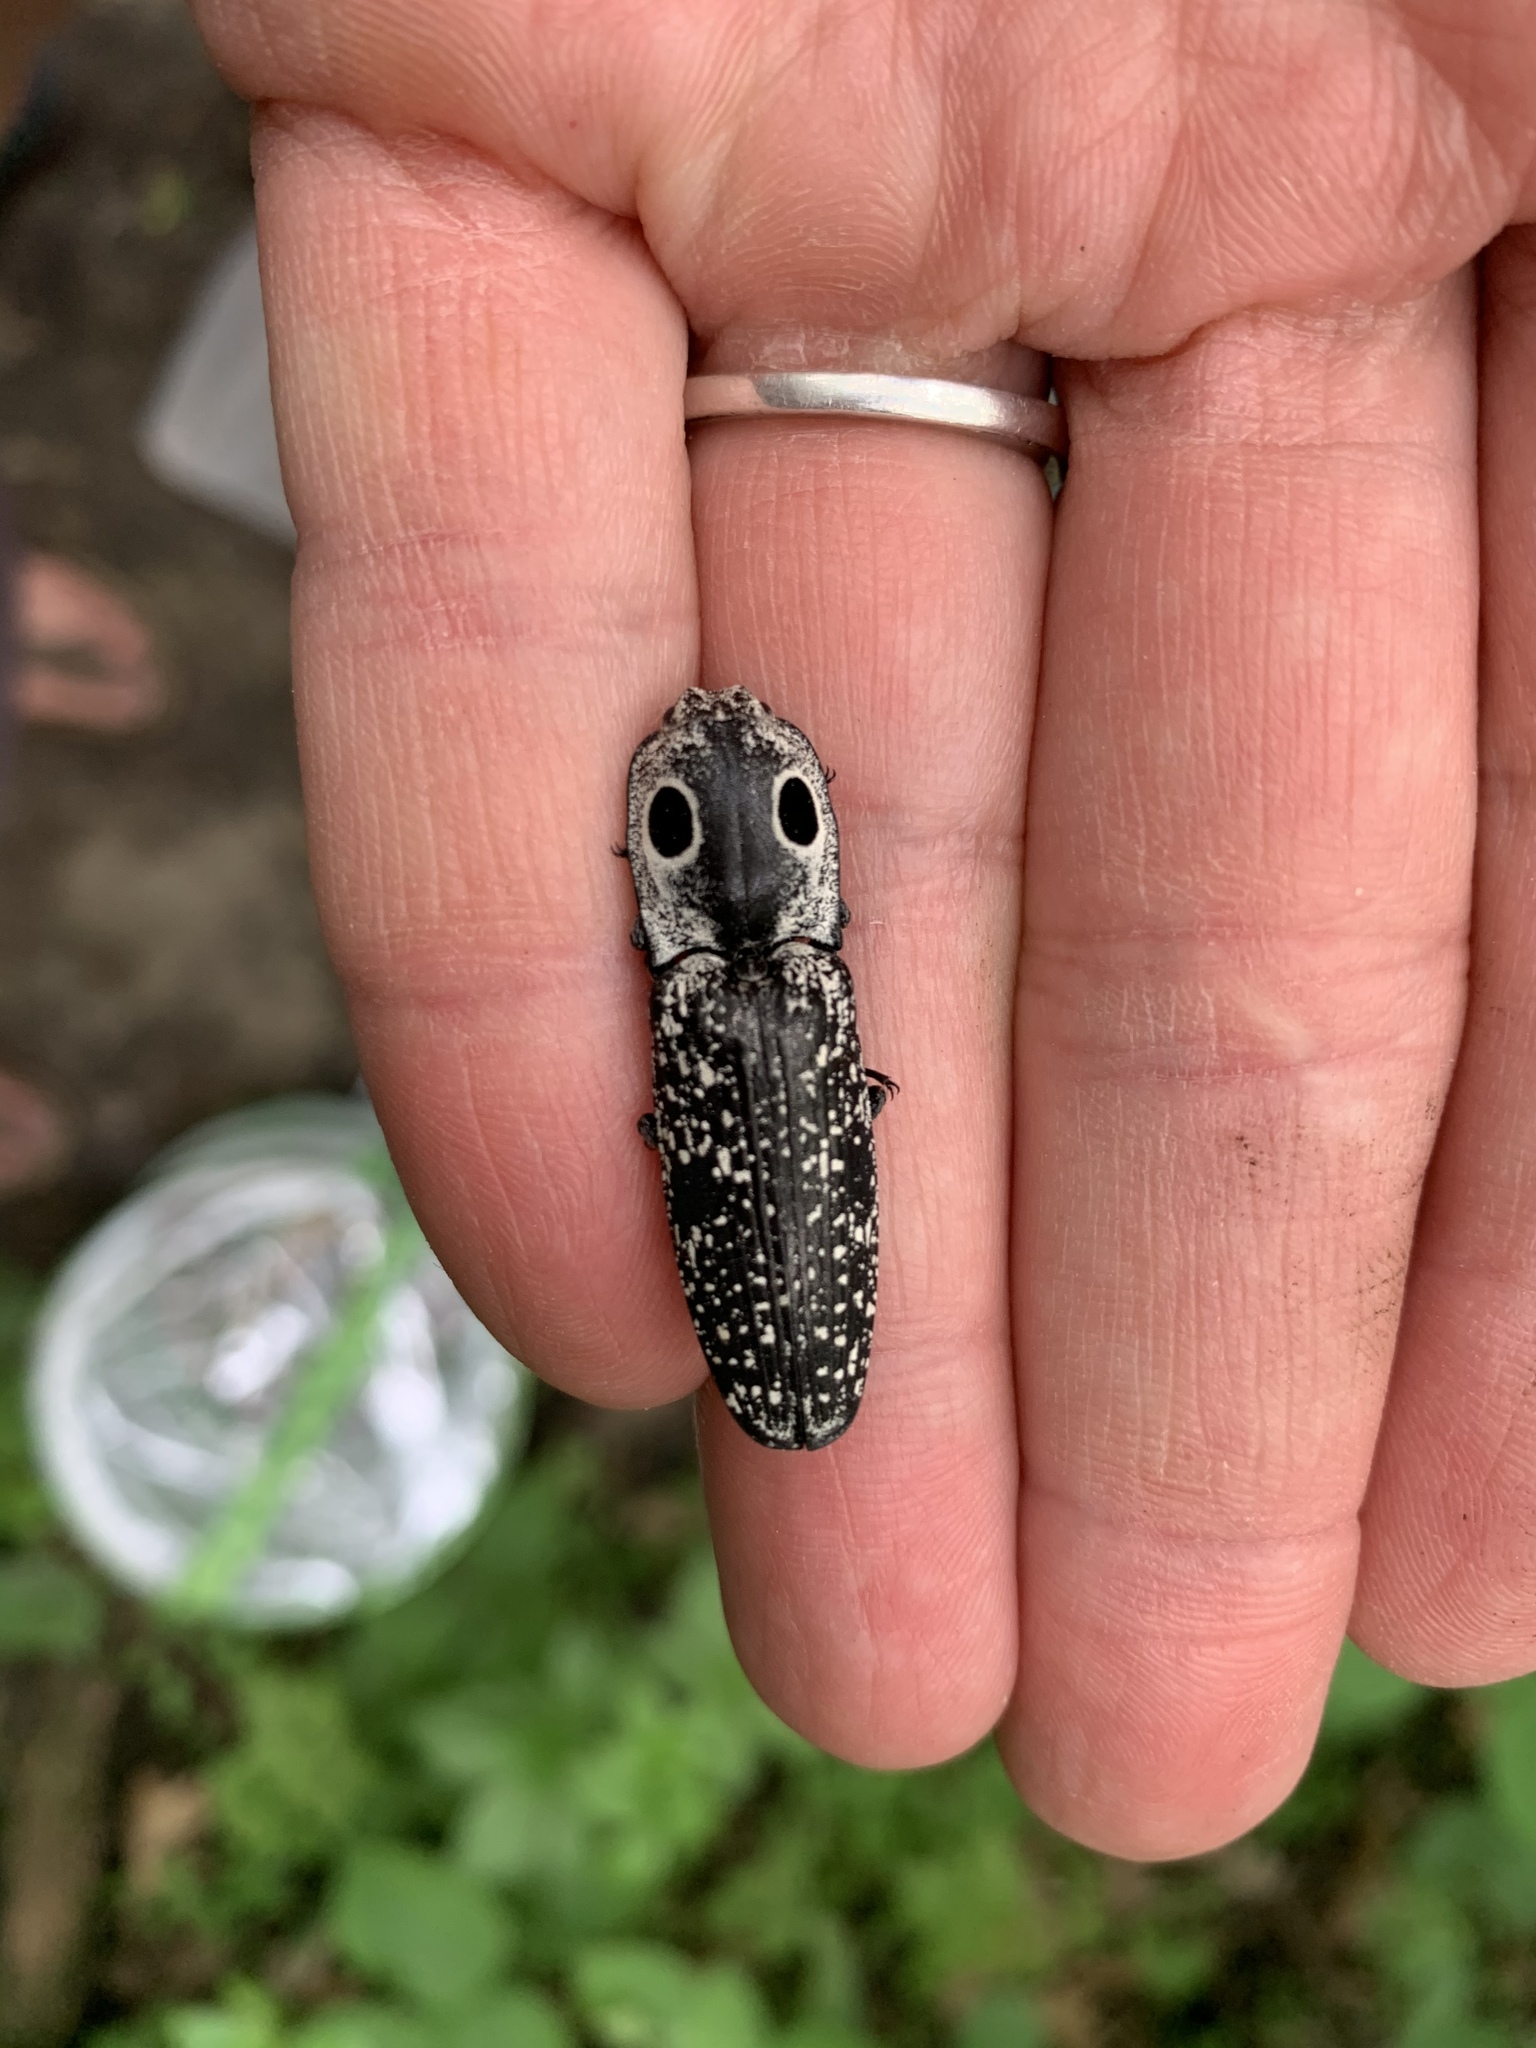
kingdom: Animalia
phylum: Arthropoda
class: Insecta
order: Coleoptera
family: Elateridae
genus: Alaus
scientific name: Alaus oculatus
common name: Eastern eyed click beetle
